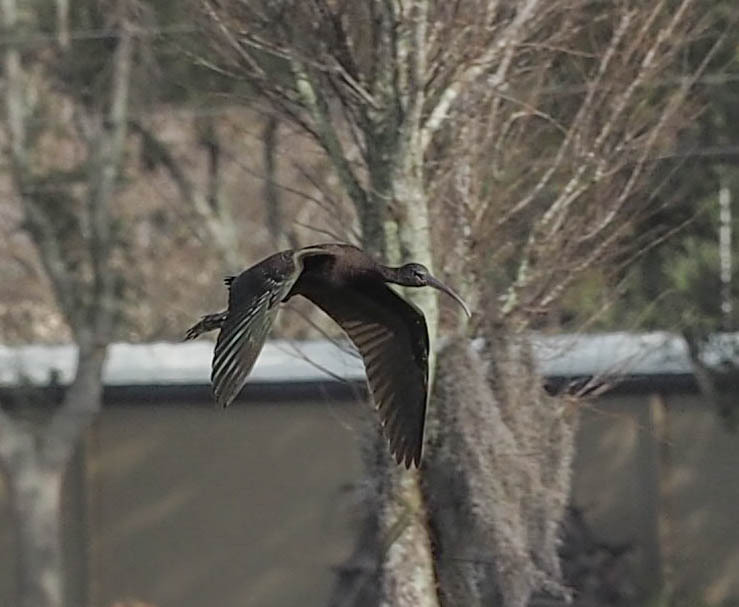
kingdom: Animalia
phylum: Chordata
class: Aves
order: Pelecaniformes
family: Threskiornithidae
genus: Plegadis
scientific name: Plegadis falcinellus
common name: Glossy ibis
